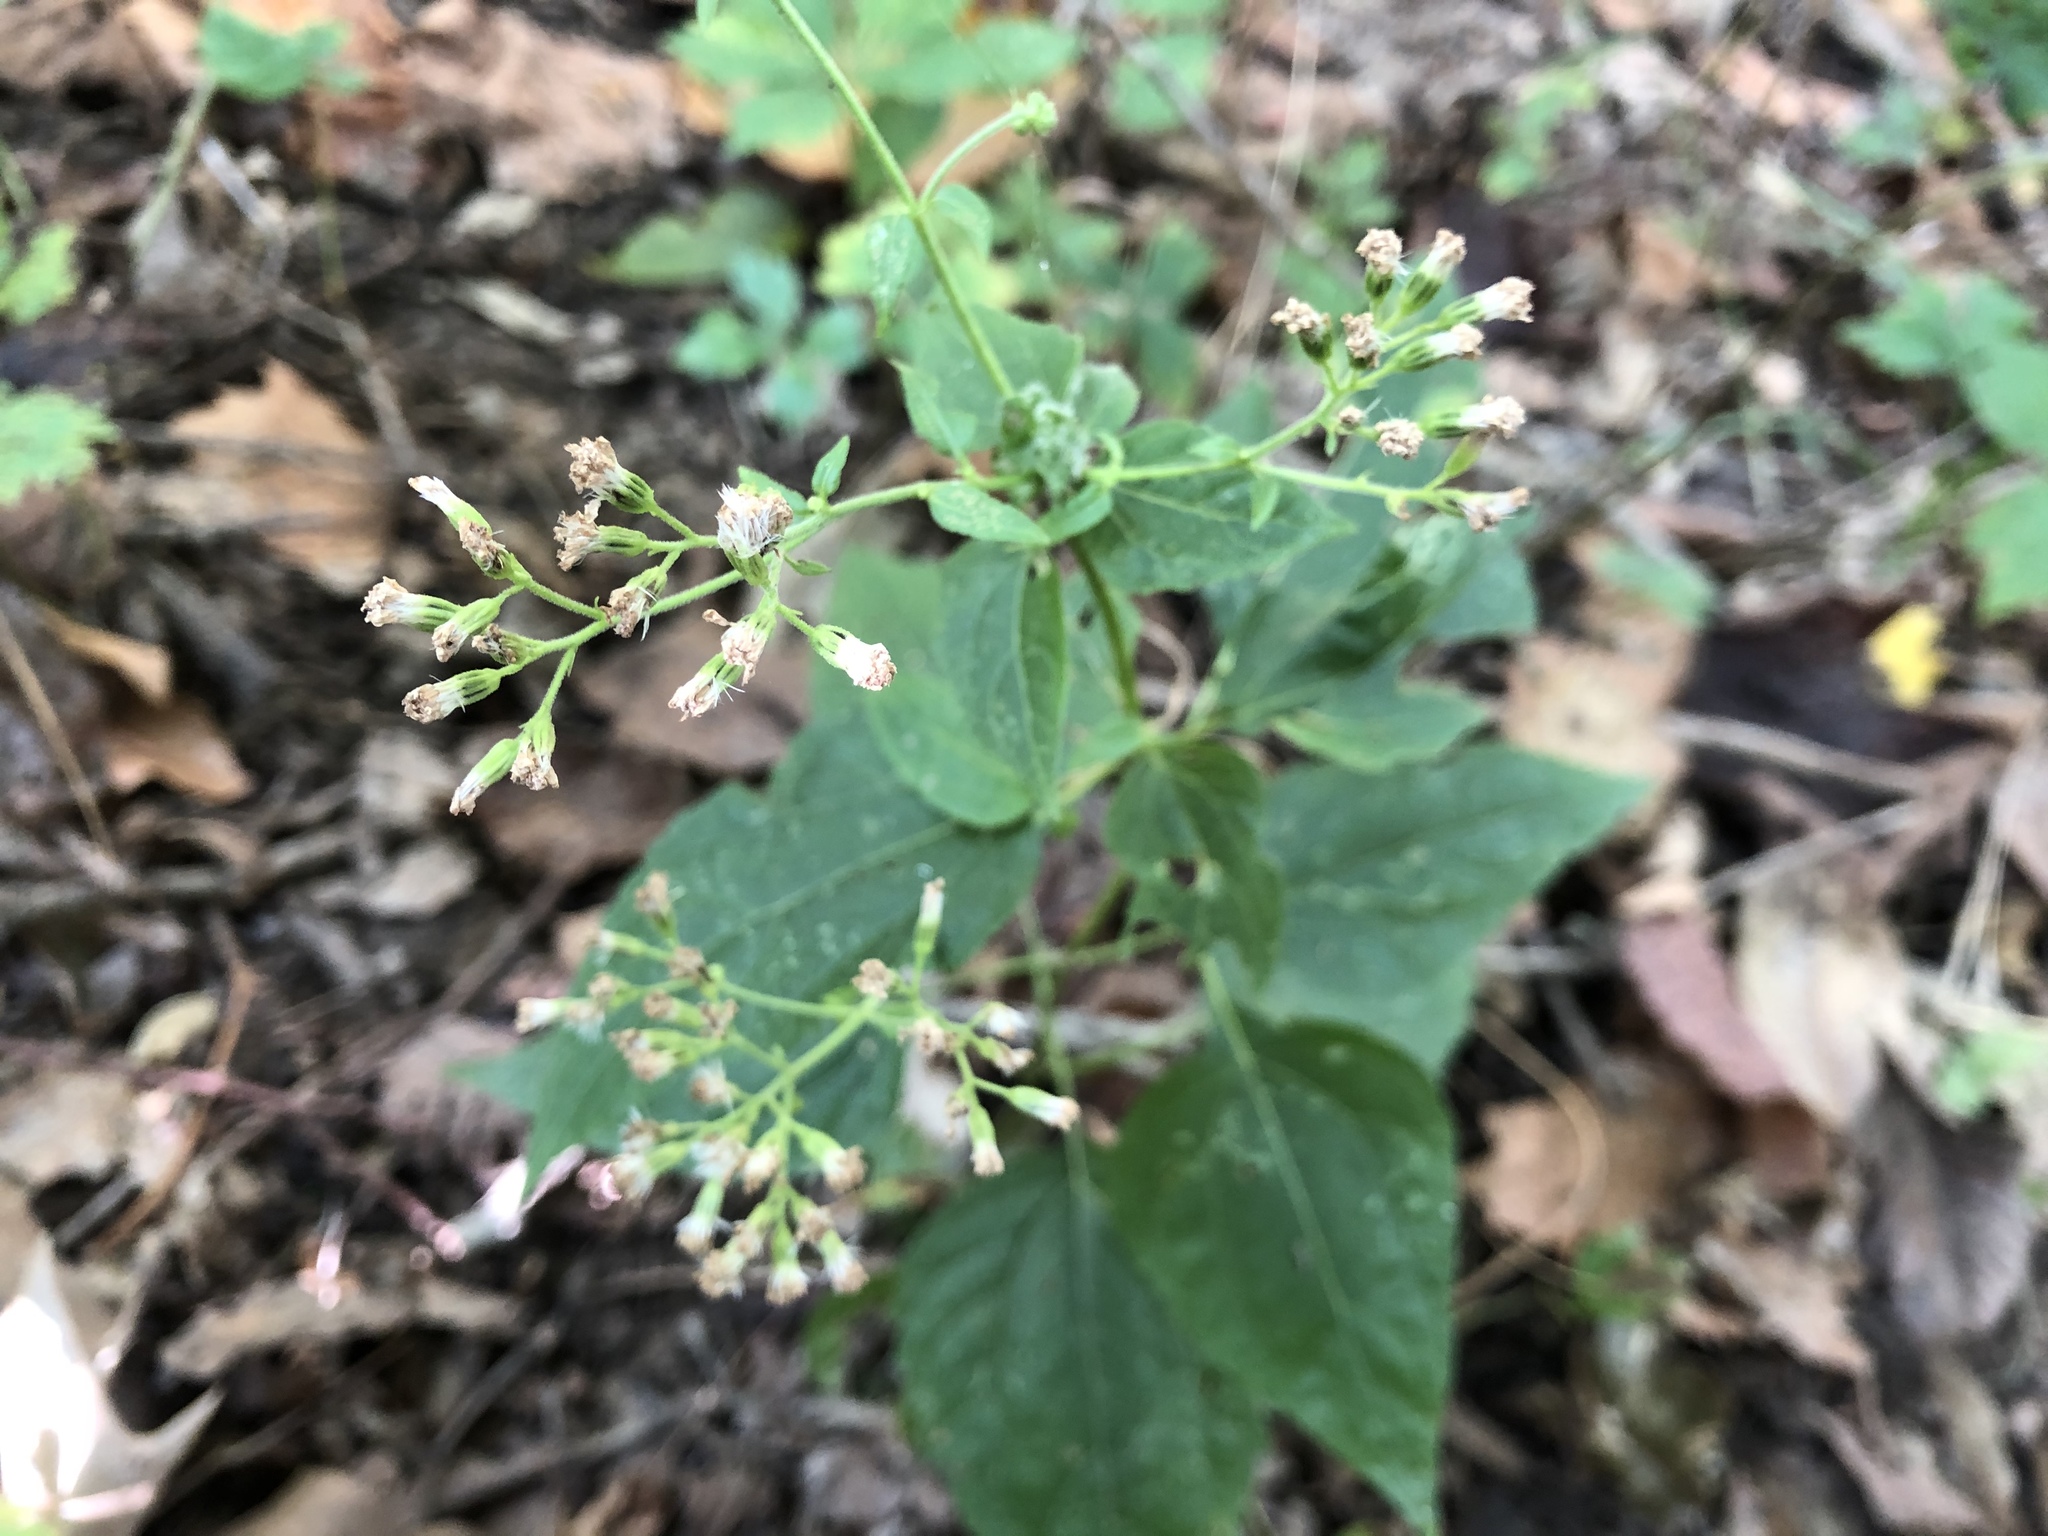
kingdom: Plantae
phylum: Tracheophyta
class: Magnoliopsida
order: Asterales
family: Asteraceae
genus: Ageratina
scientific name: Ageratina altissima
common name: White snakeroot
